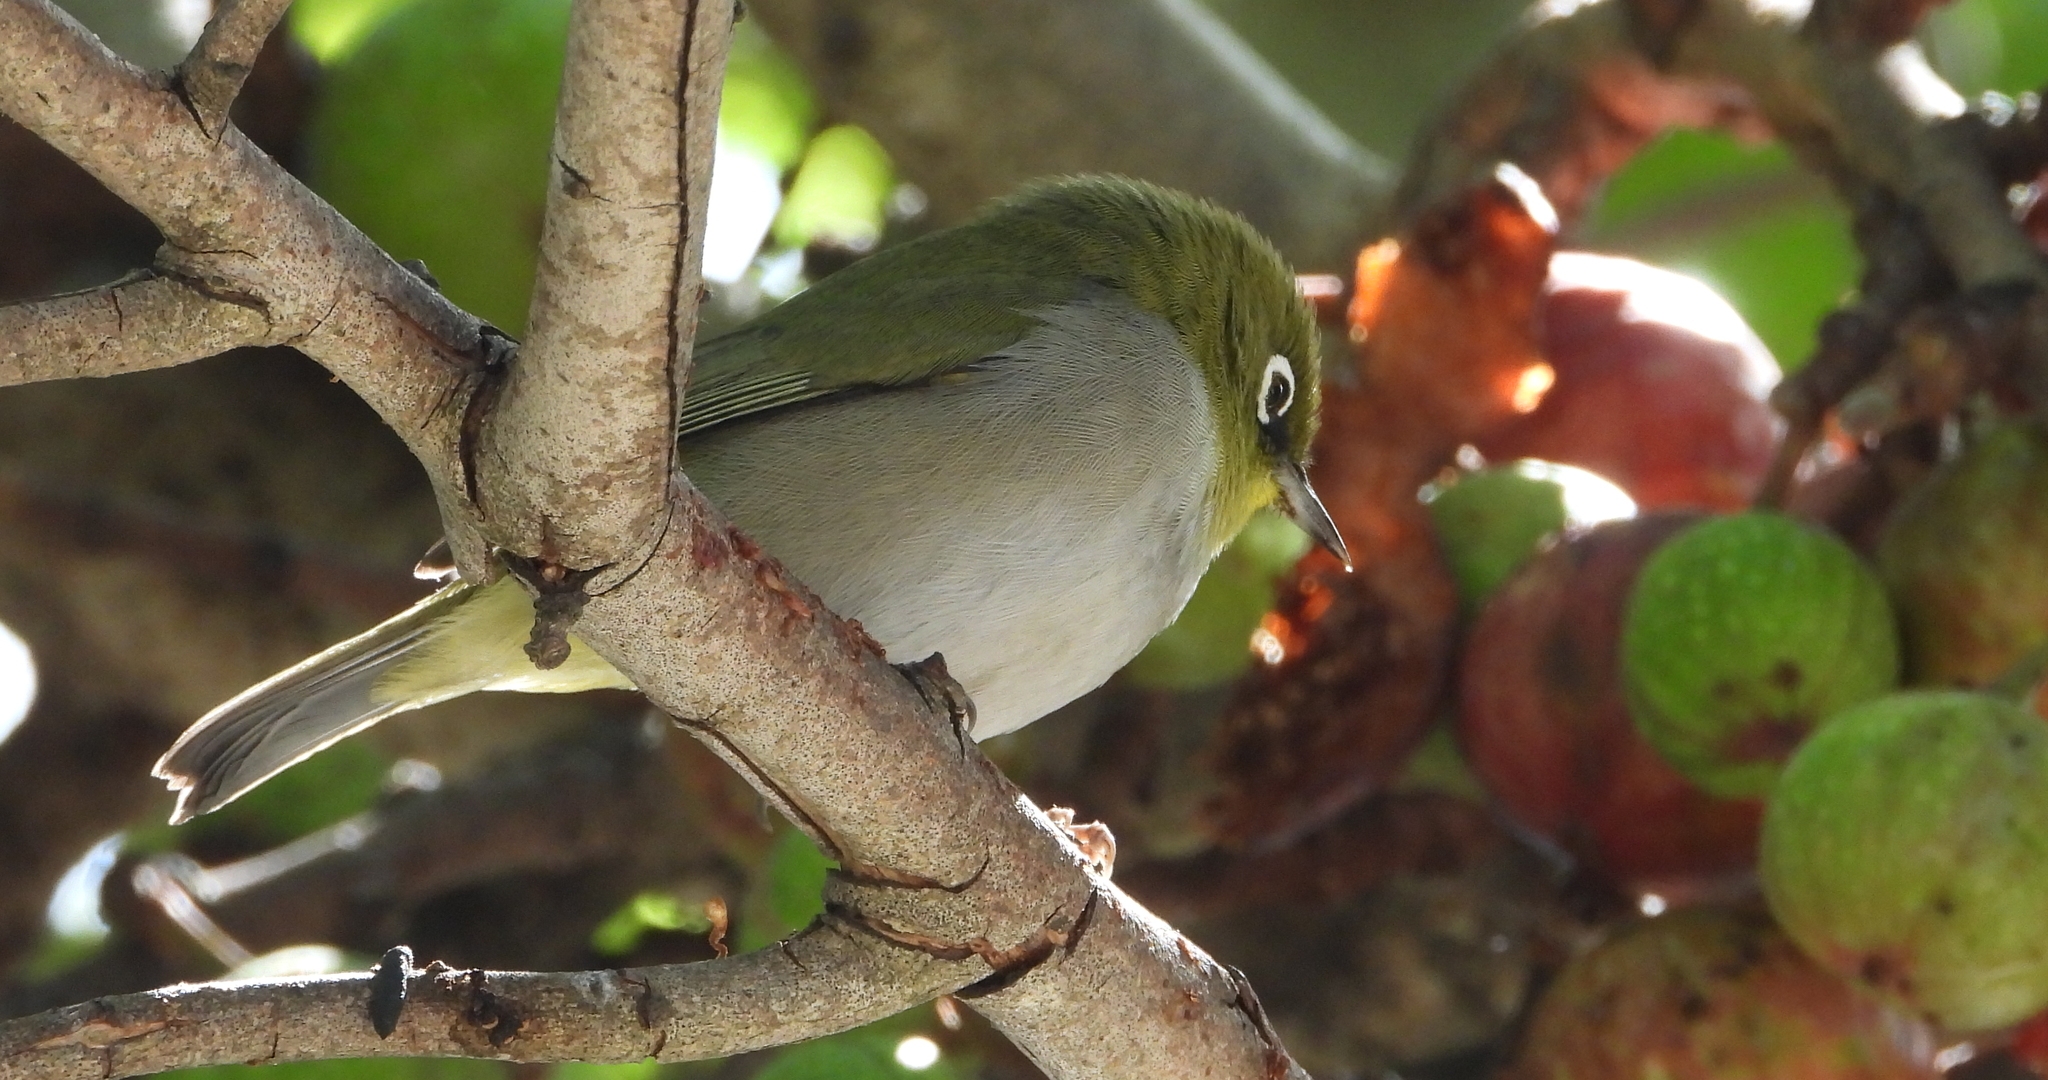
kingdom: Animalia
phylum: Chordata
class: Aves
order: Passeriformes
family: Zosteropidae
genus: Zosterops
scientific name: Zosterops virens
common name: Cape white-eye
